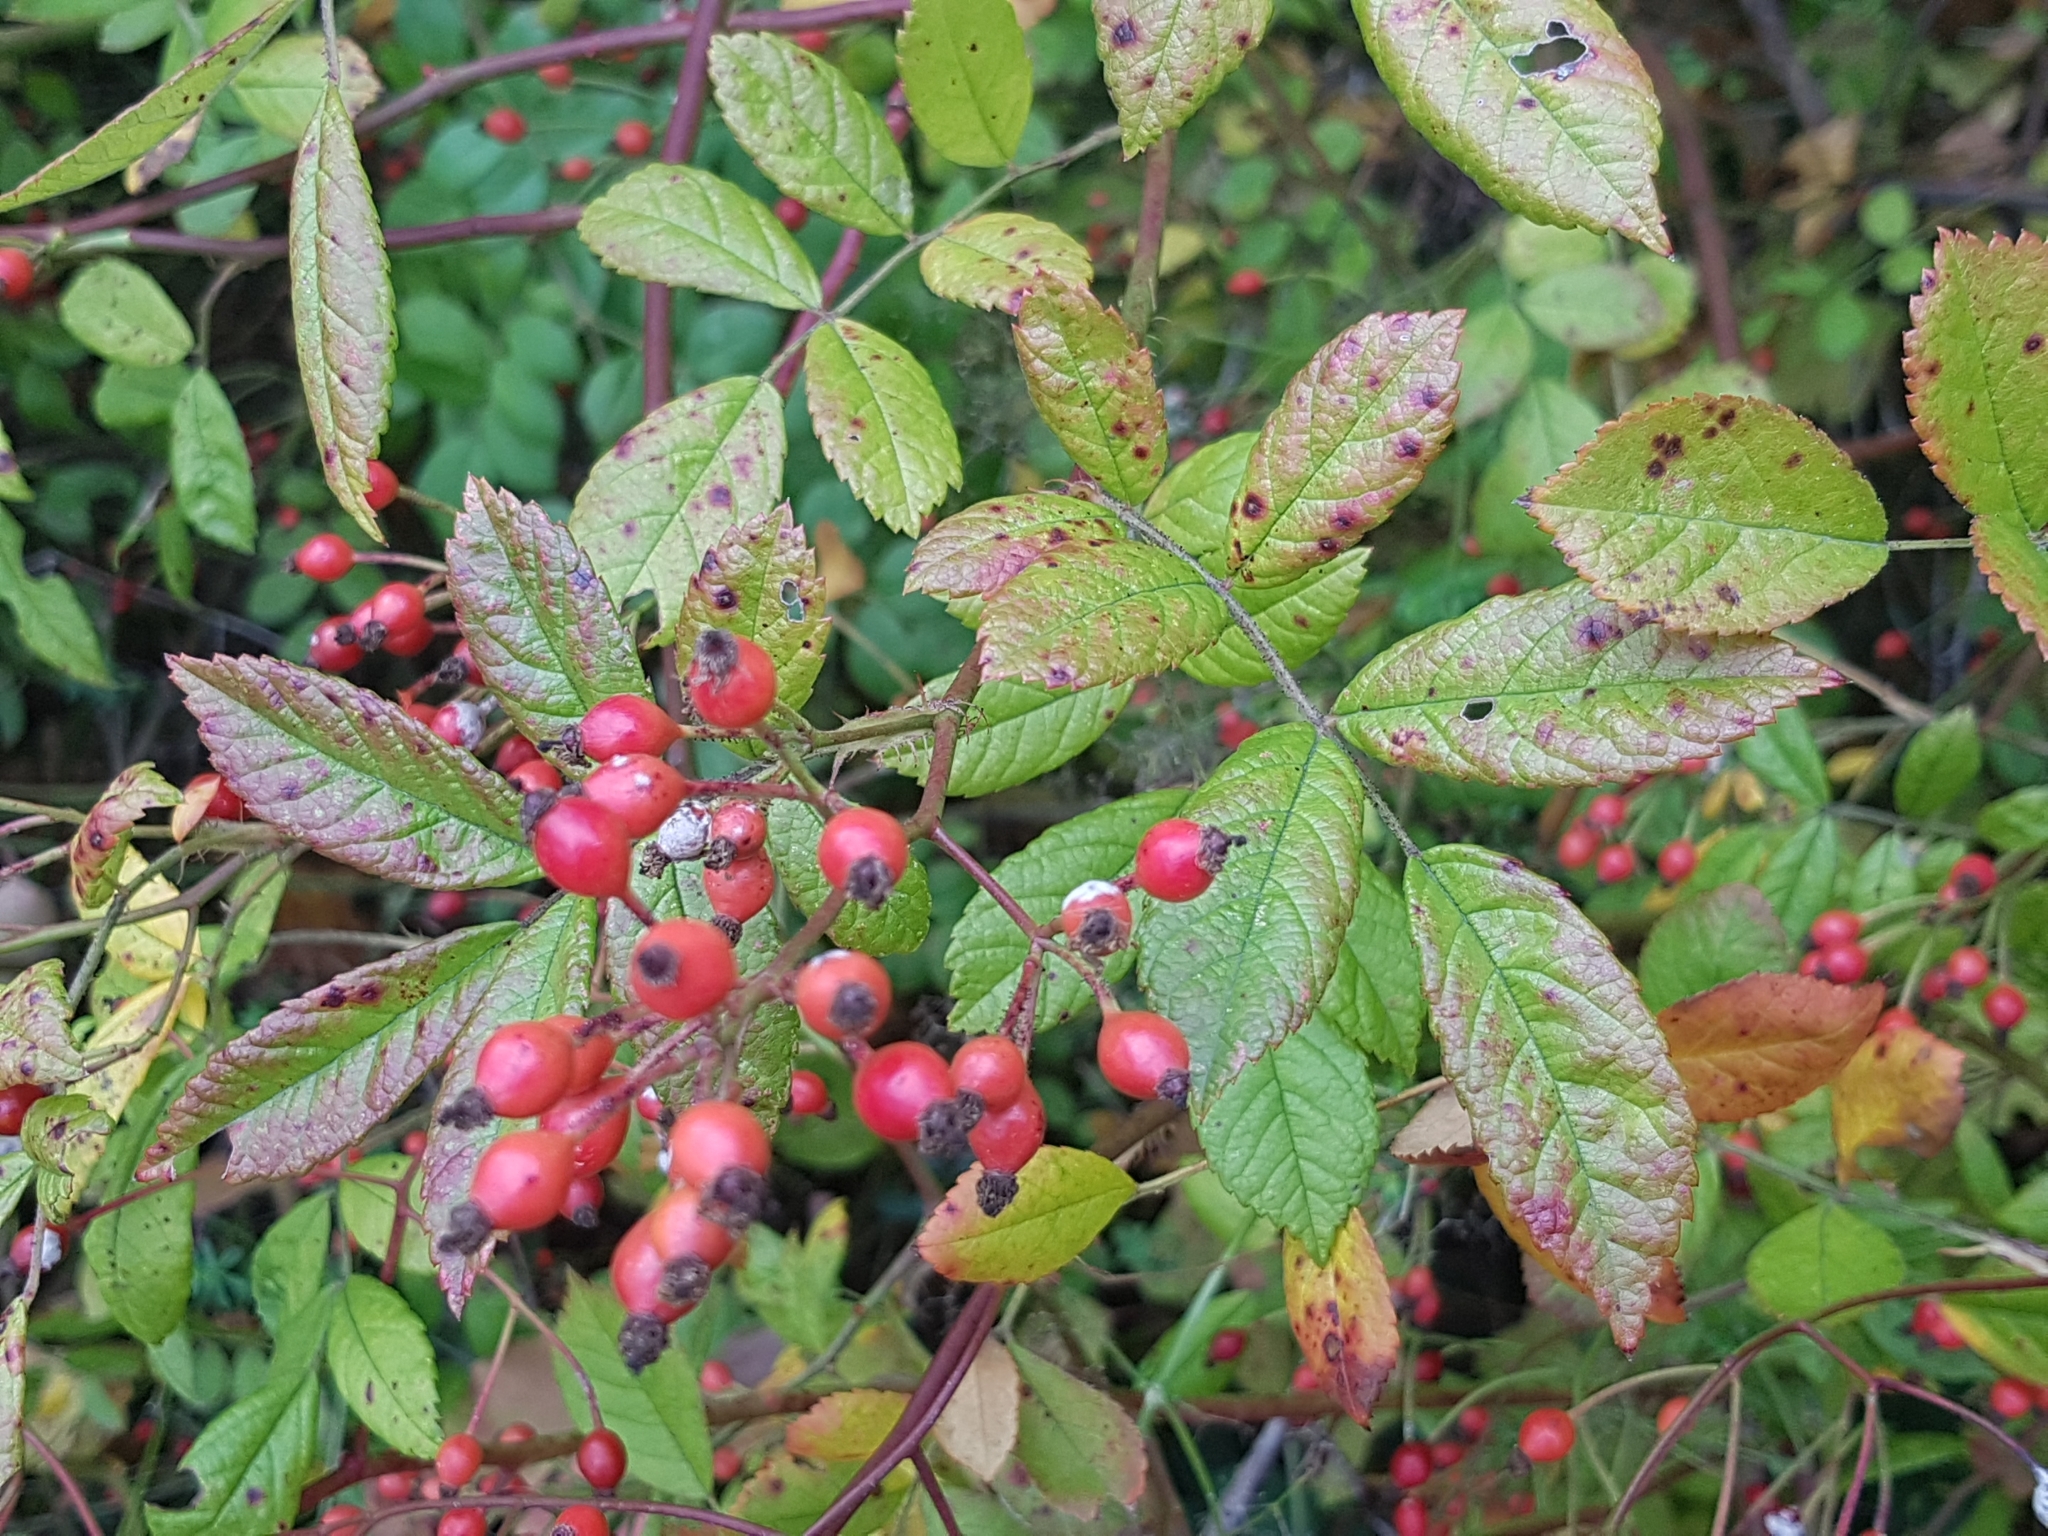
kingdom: Plantae
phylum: Tracheophyta
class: Magnoliopsida
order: Rosales
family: Rosaceae
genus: Rosa
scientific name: Rosa multiflora
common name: Multiflora rose
